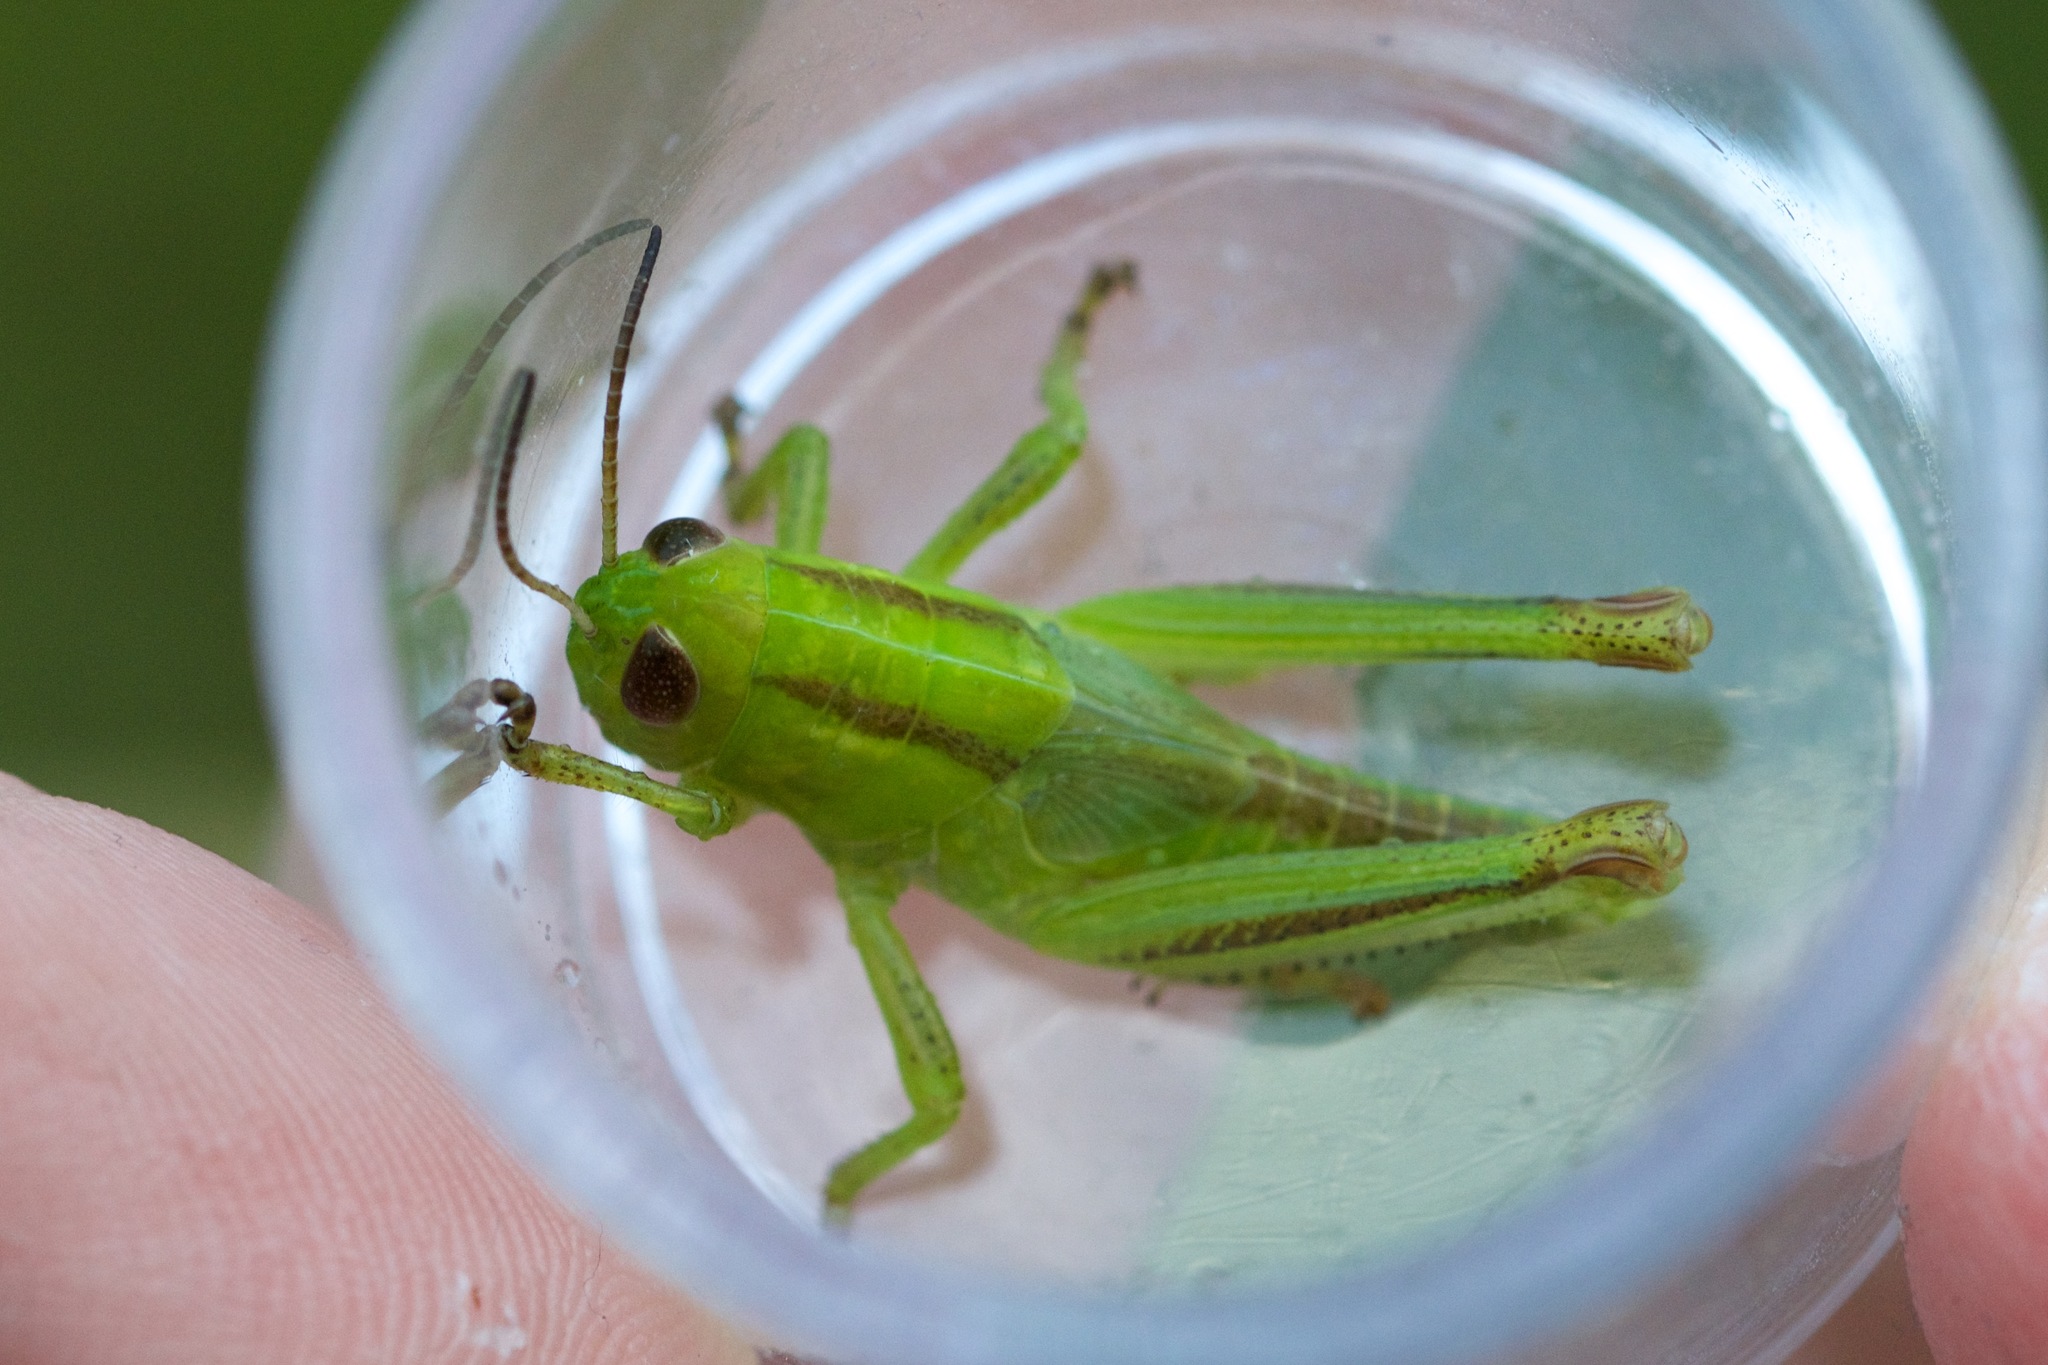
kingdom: Animalia
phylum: Arthropoda
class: Insecta
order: Orthoptera
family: Acrididae
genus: Melanoplus
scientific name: Melanoplus bivittatus
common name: Two-striped grasshopper
